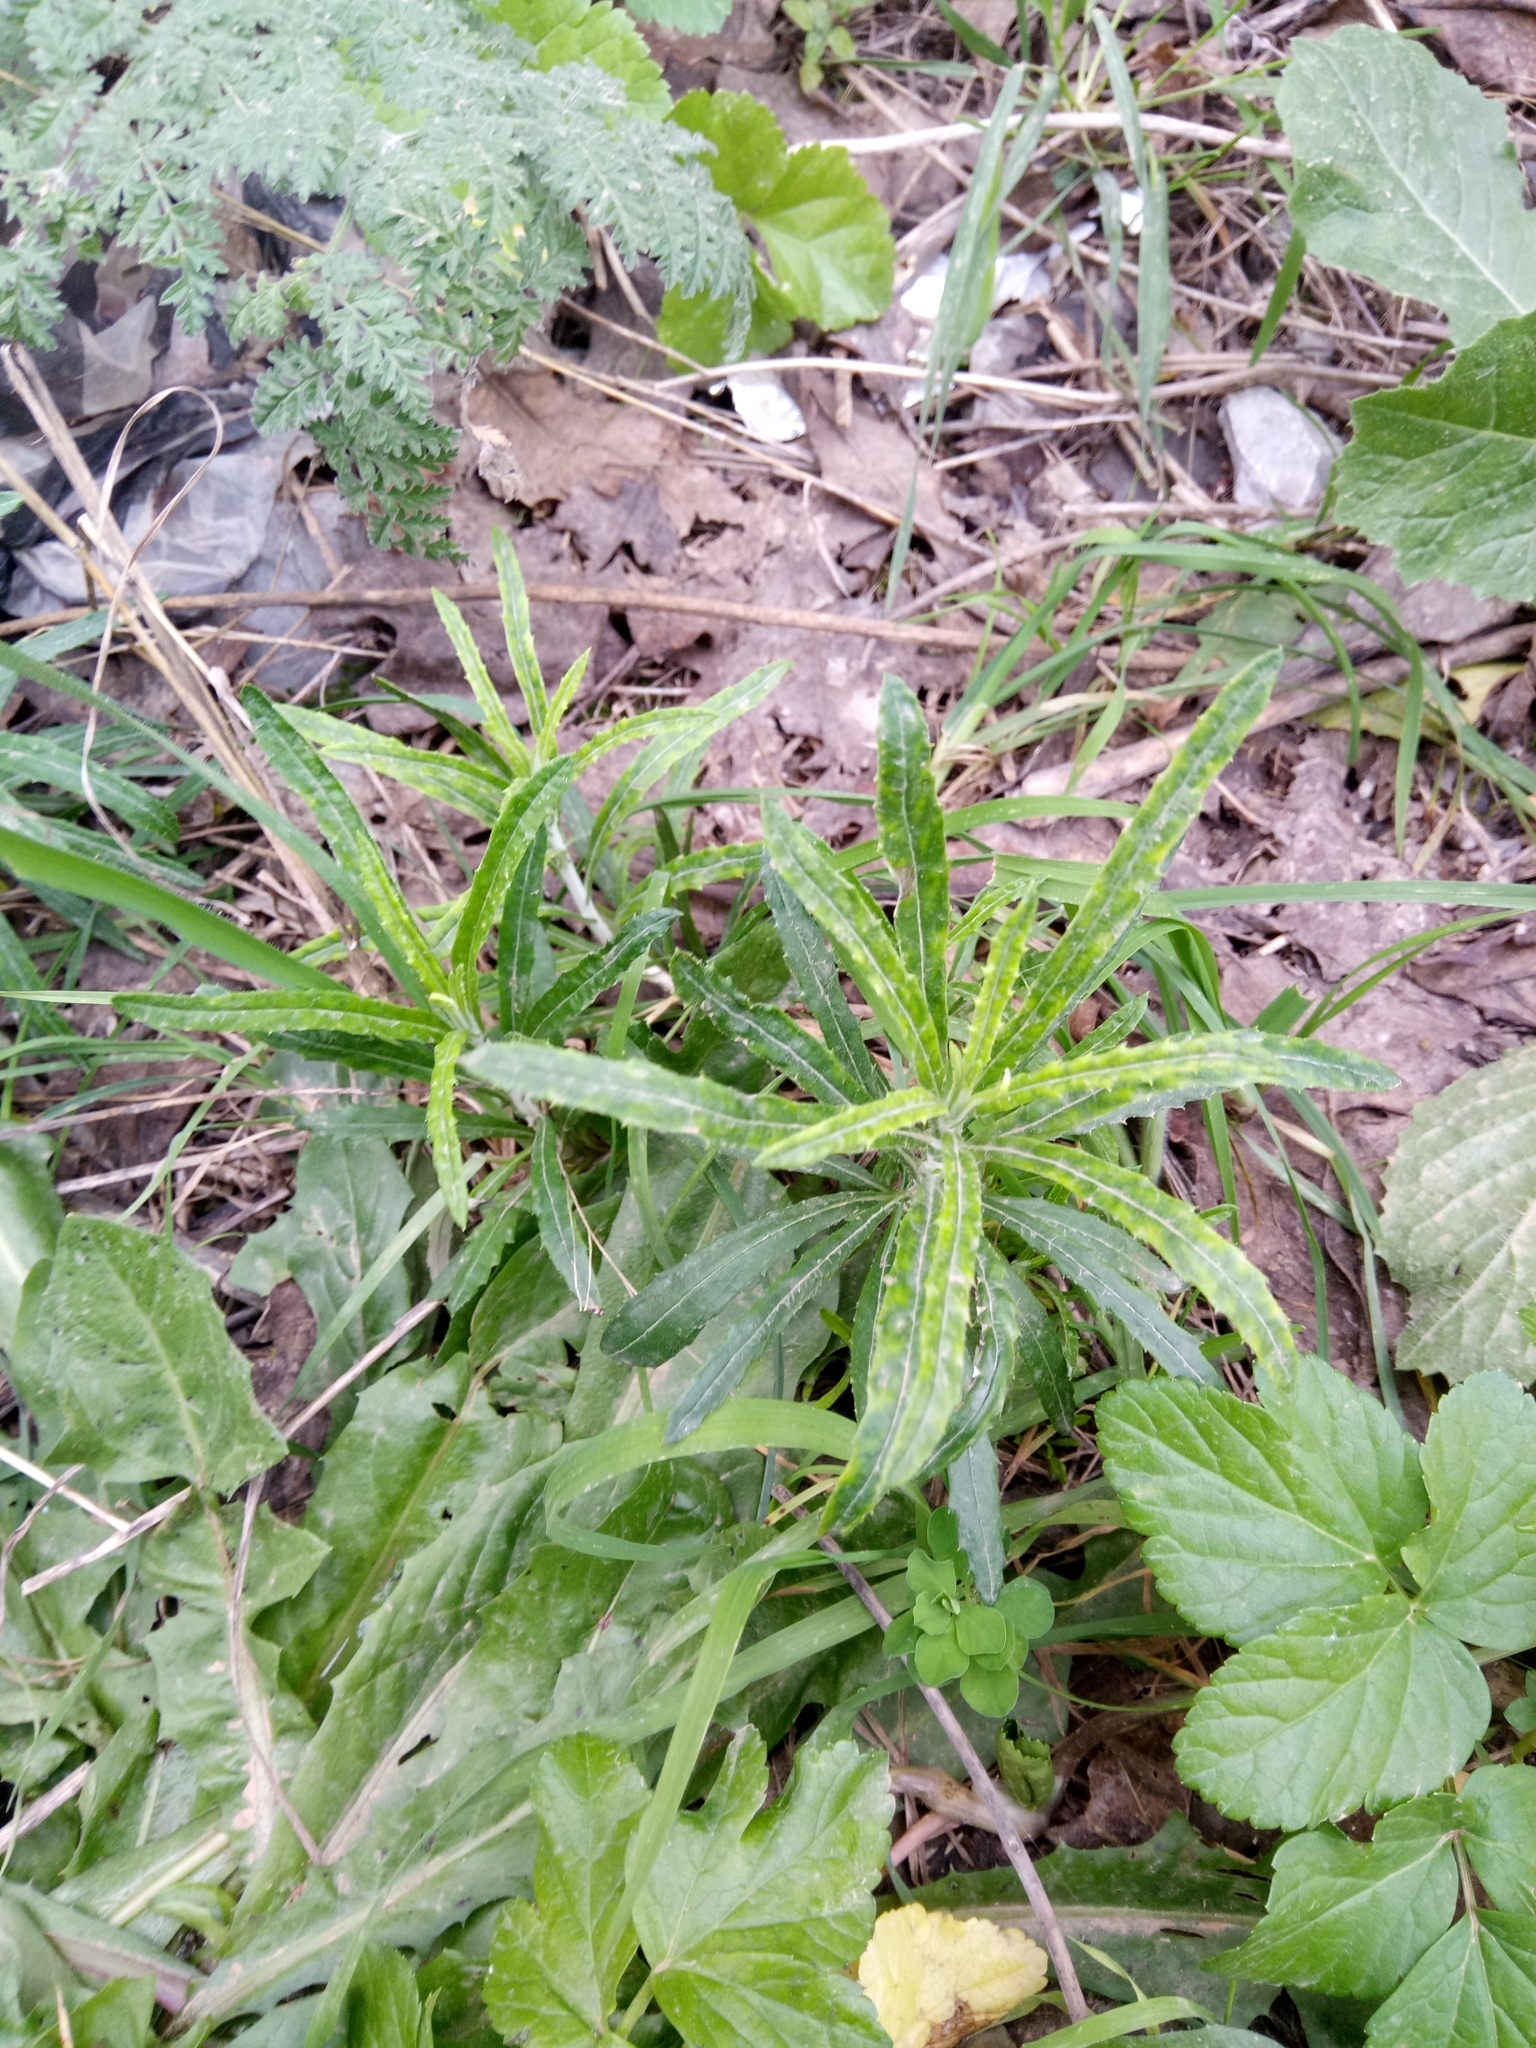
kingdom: Plantae
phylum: Tracheophyta
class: Magnoliopsida
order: Asterales
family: Asteraceae
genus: Phagnalon
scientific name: Phagnalon saxatile
